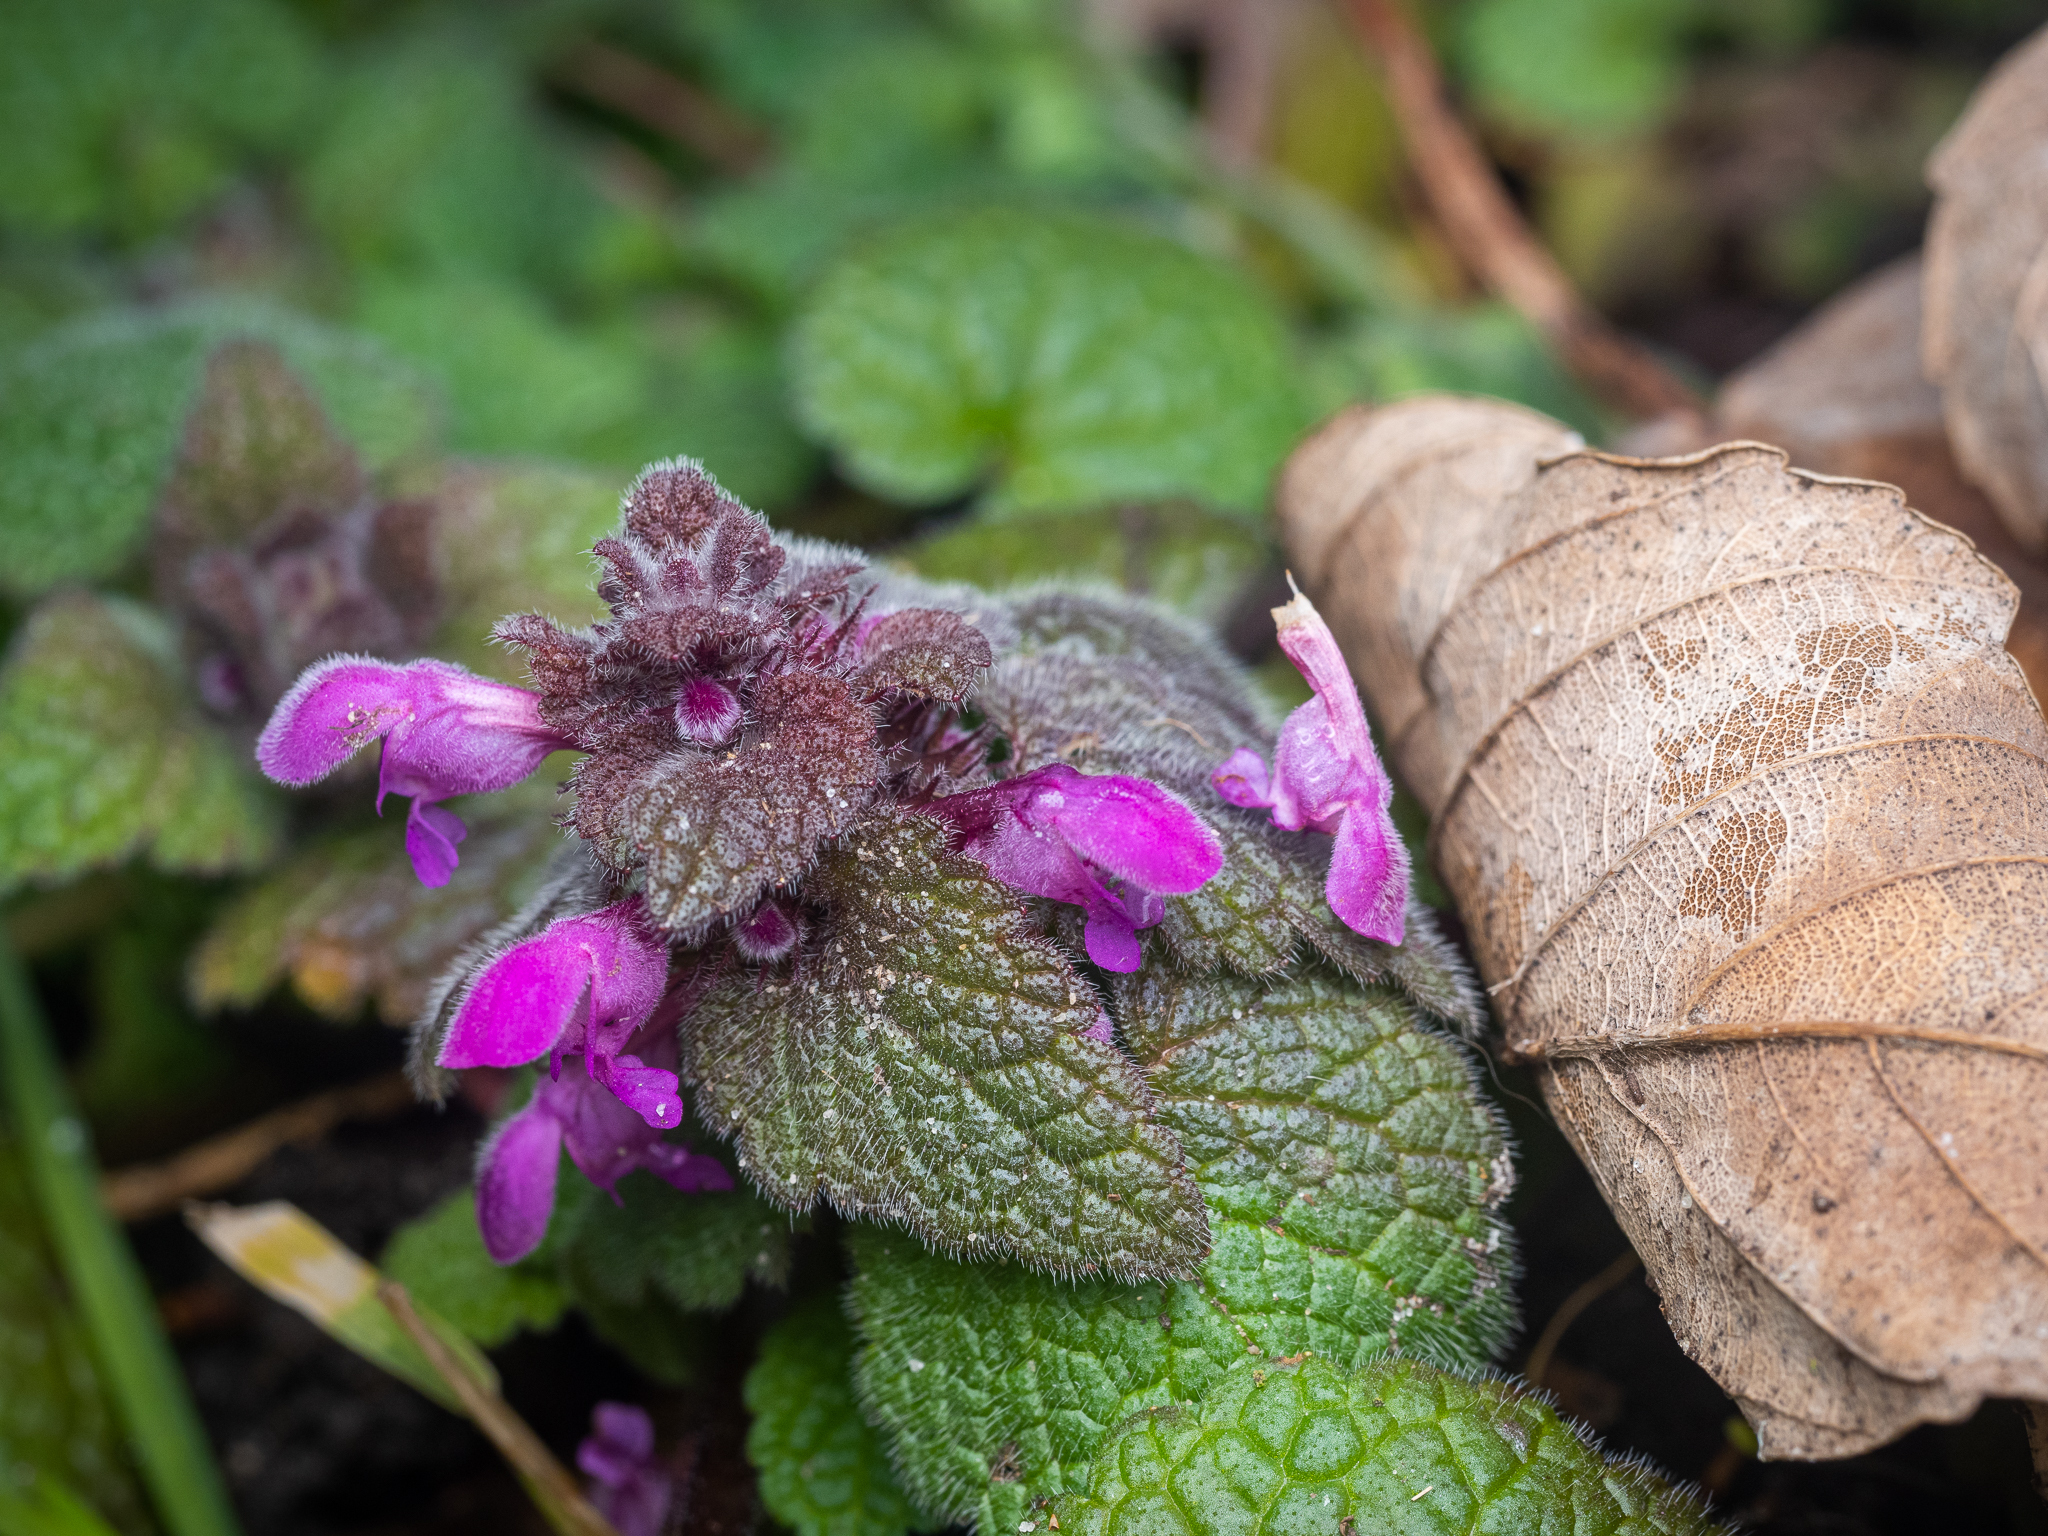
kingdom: Plantae
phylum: Tracheophyta
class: Magnoliopsida
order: Lamiales
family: Lamiaceae
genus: Lamium
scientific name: Lamium purpureum
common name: Red dead-nettle
